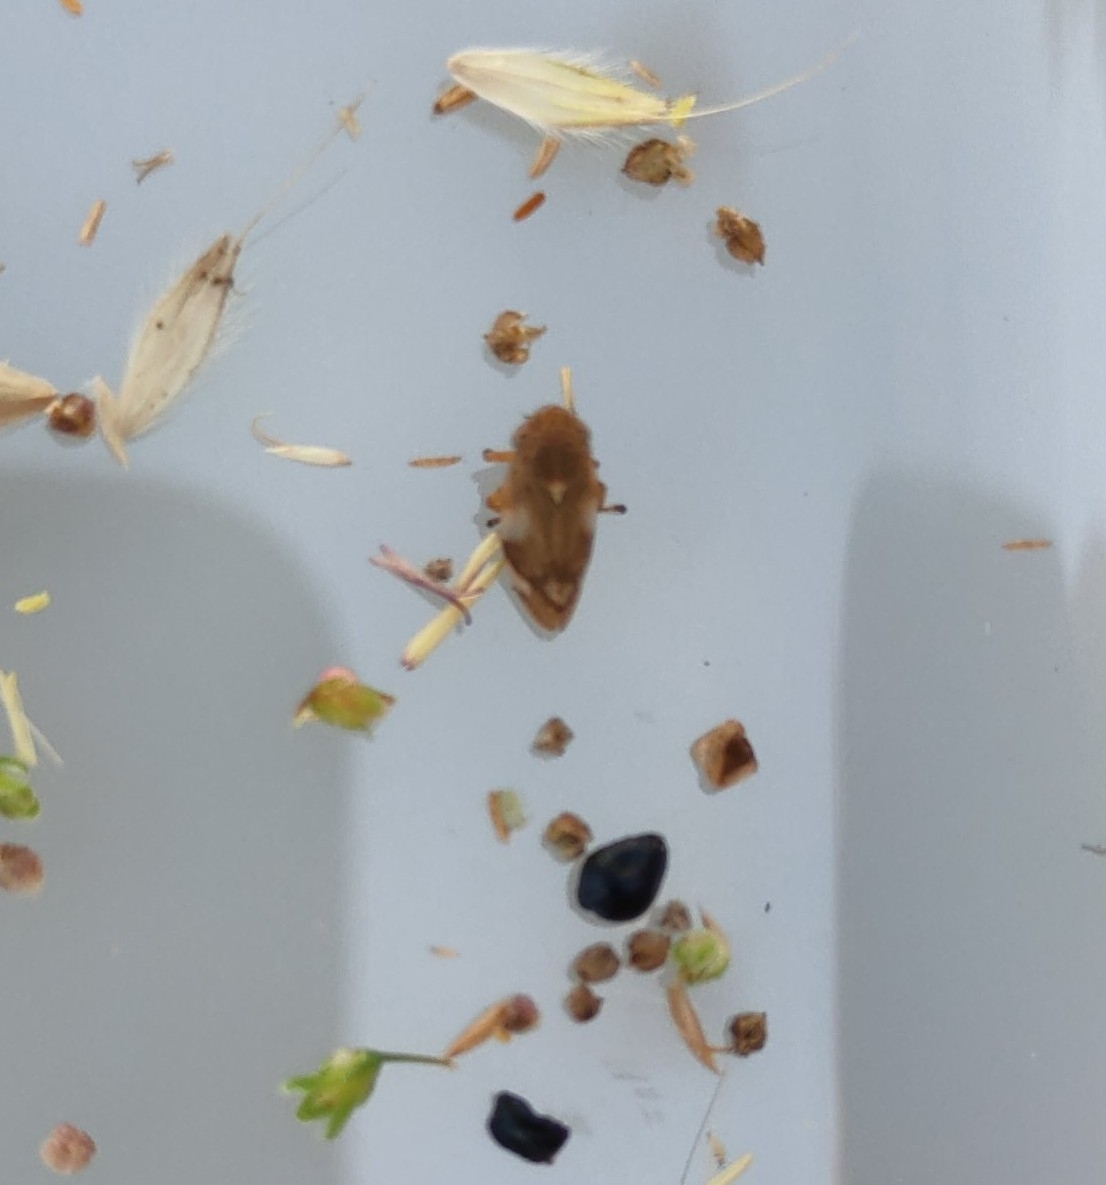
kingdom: Animalia
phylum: Arthropoda
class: Insecta
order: Hemiptera
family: Aphrophoridae
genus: Philaenus
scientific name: Philaenus spumarius
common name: Meadow spittlebug
